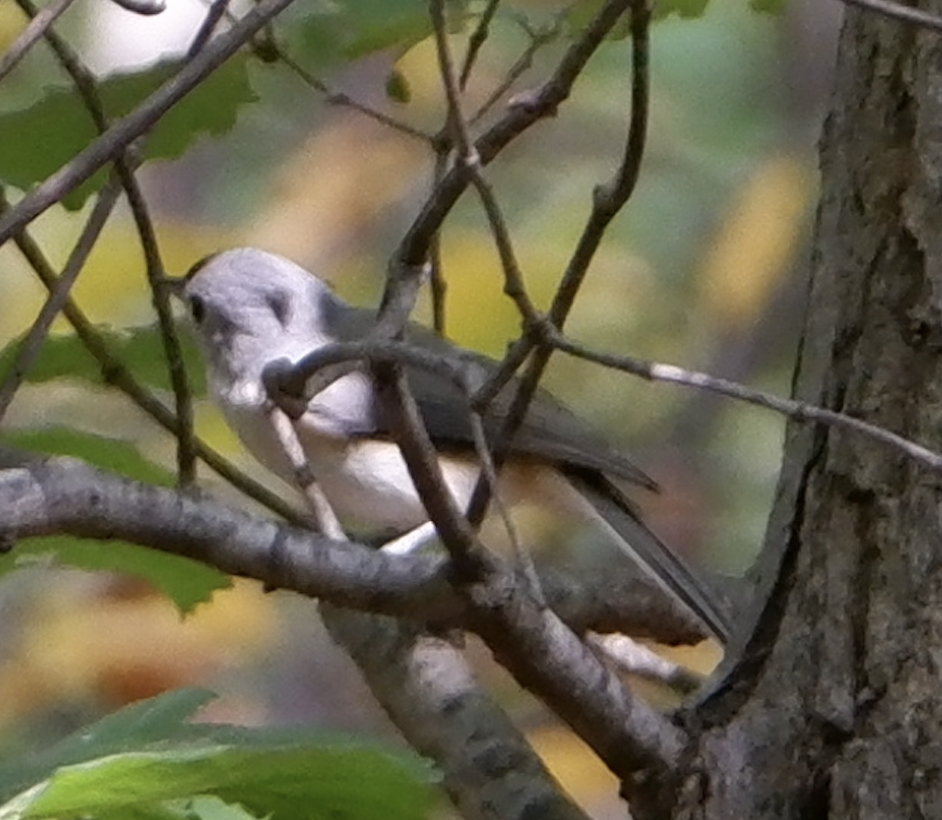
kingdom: Animalia
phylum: Chordata
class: Aves
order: Passeriformes
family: Paridae
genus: Baeolophus
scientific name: Baeolophus bicolor
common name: Tufted titmouse
